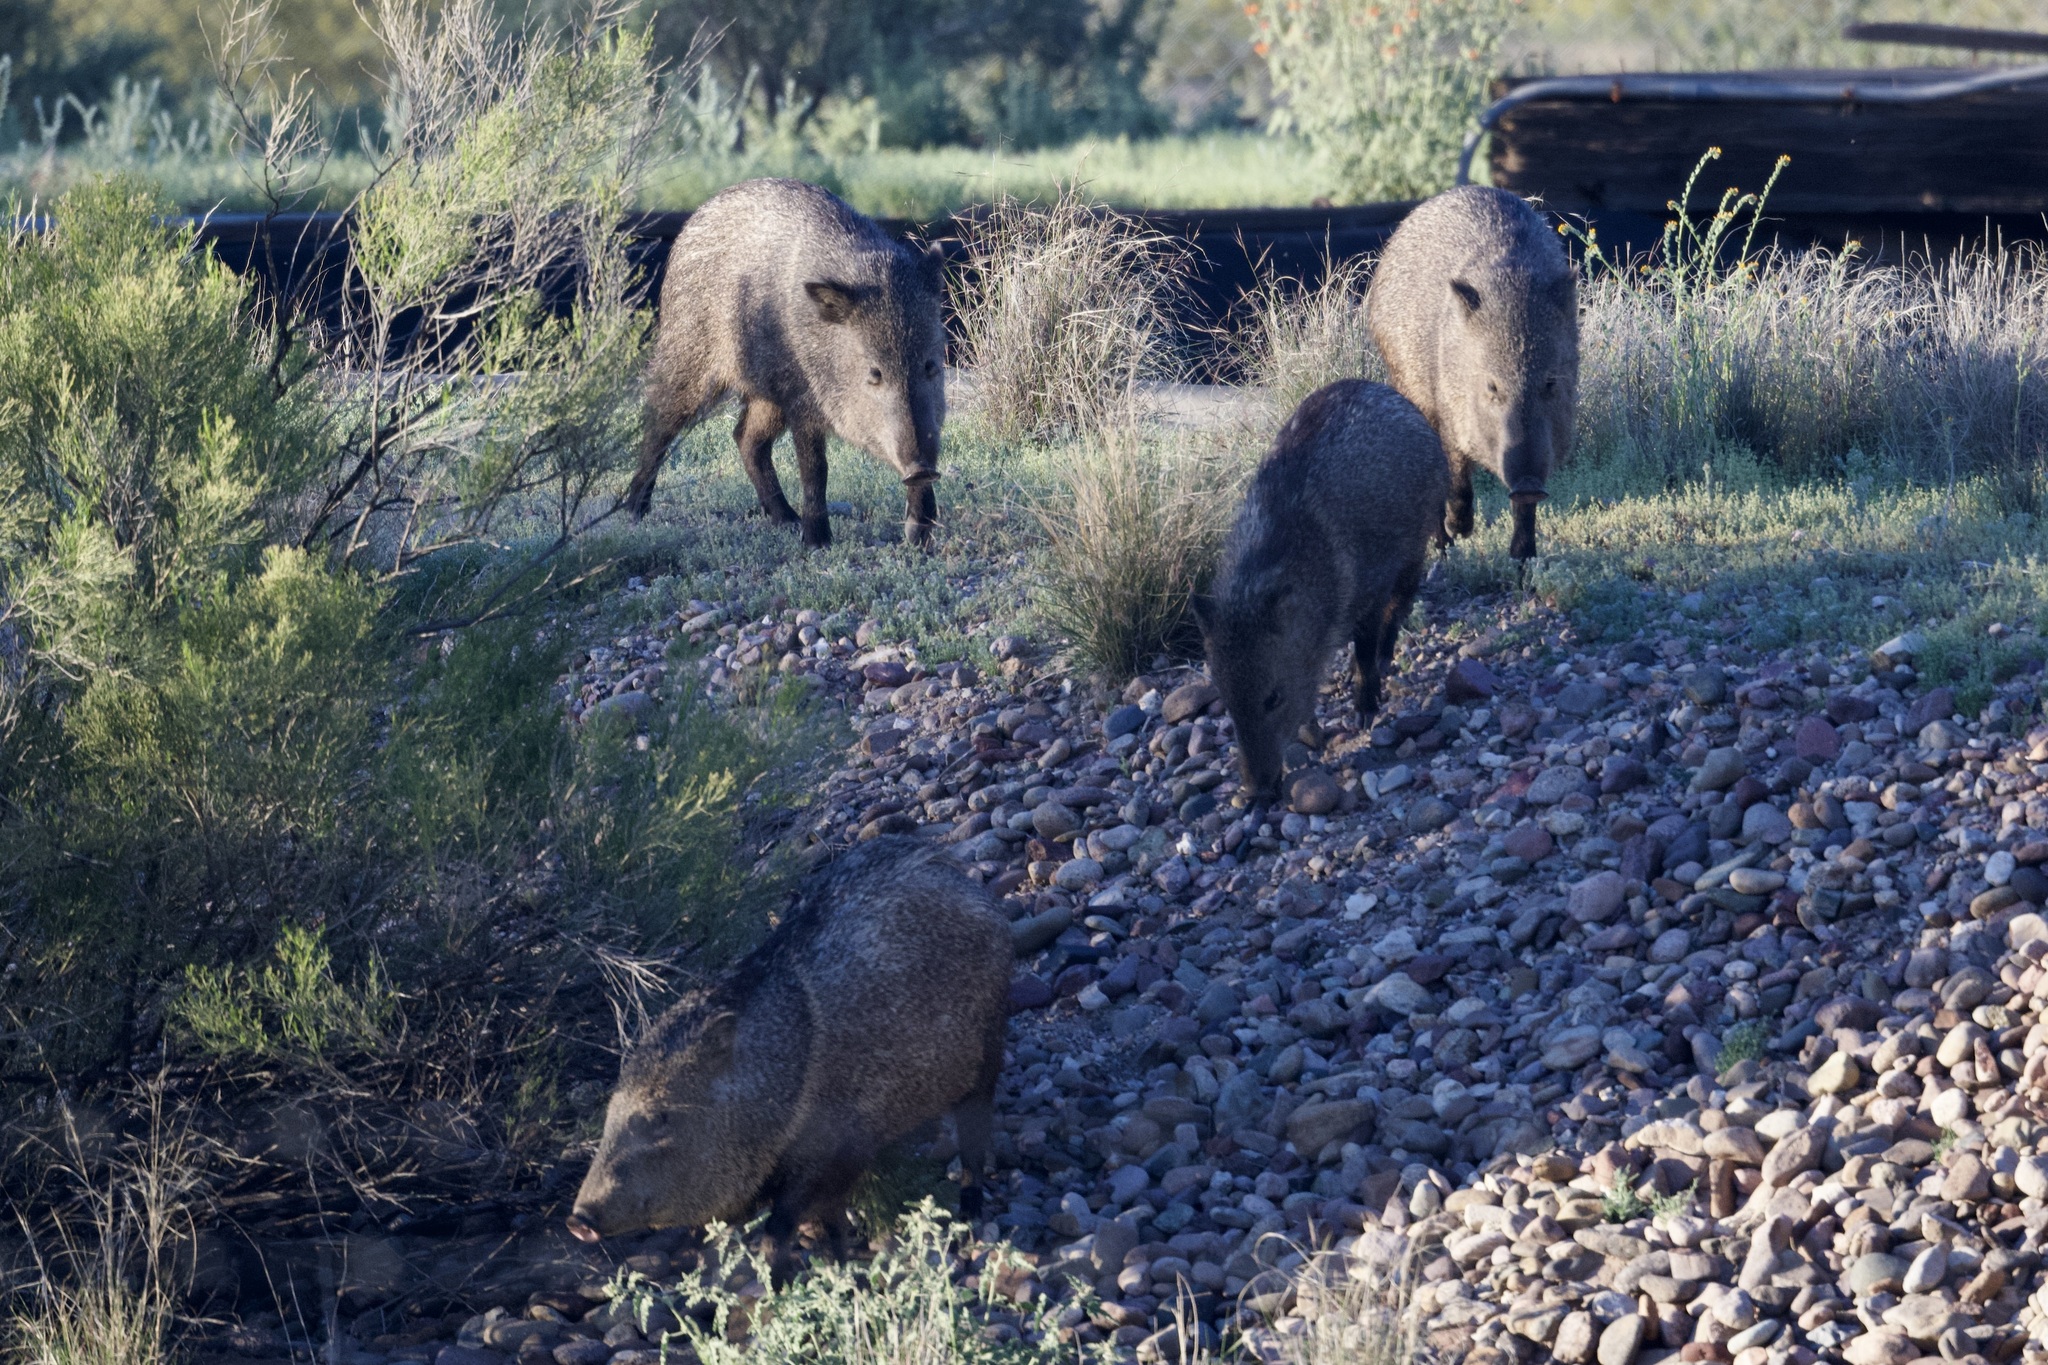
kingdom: Animalia
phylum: Chordata
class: Mammalia
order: Artiodactyla
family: Tayassuidae
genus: Pecari
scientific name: Pecari tajacu
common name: Collared peccary
